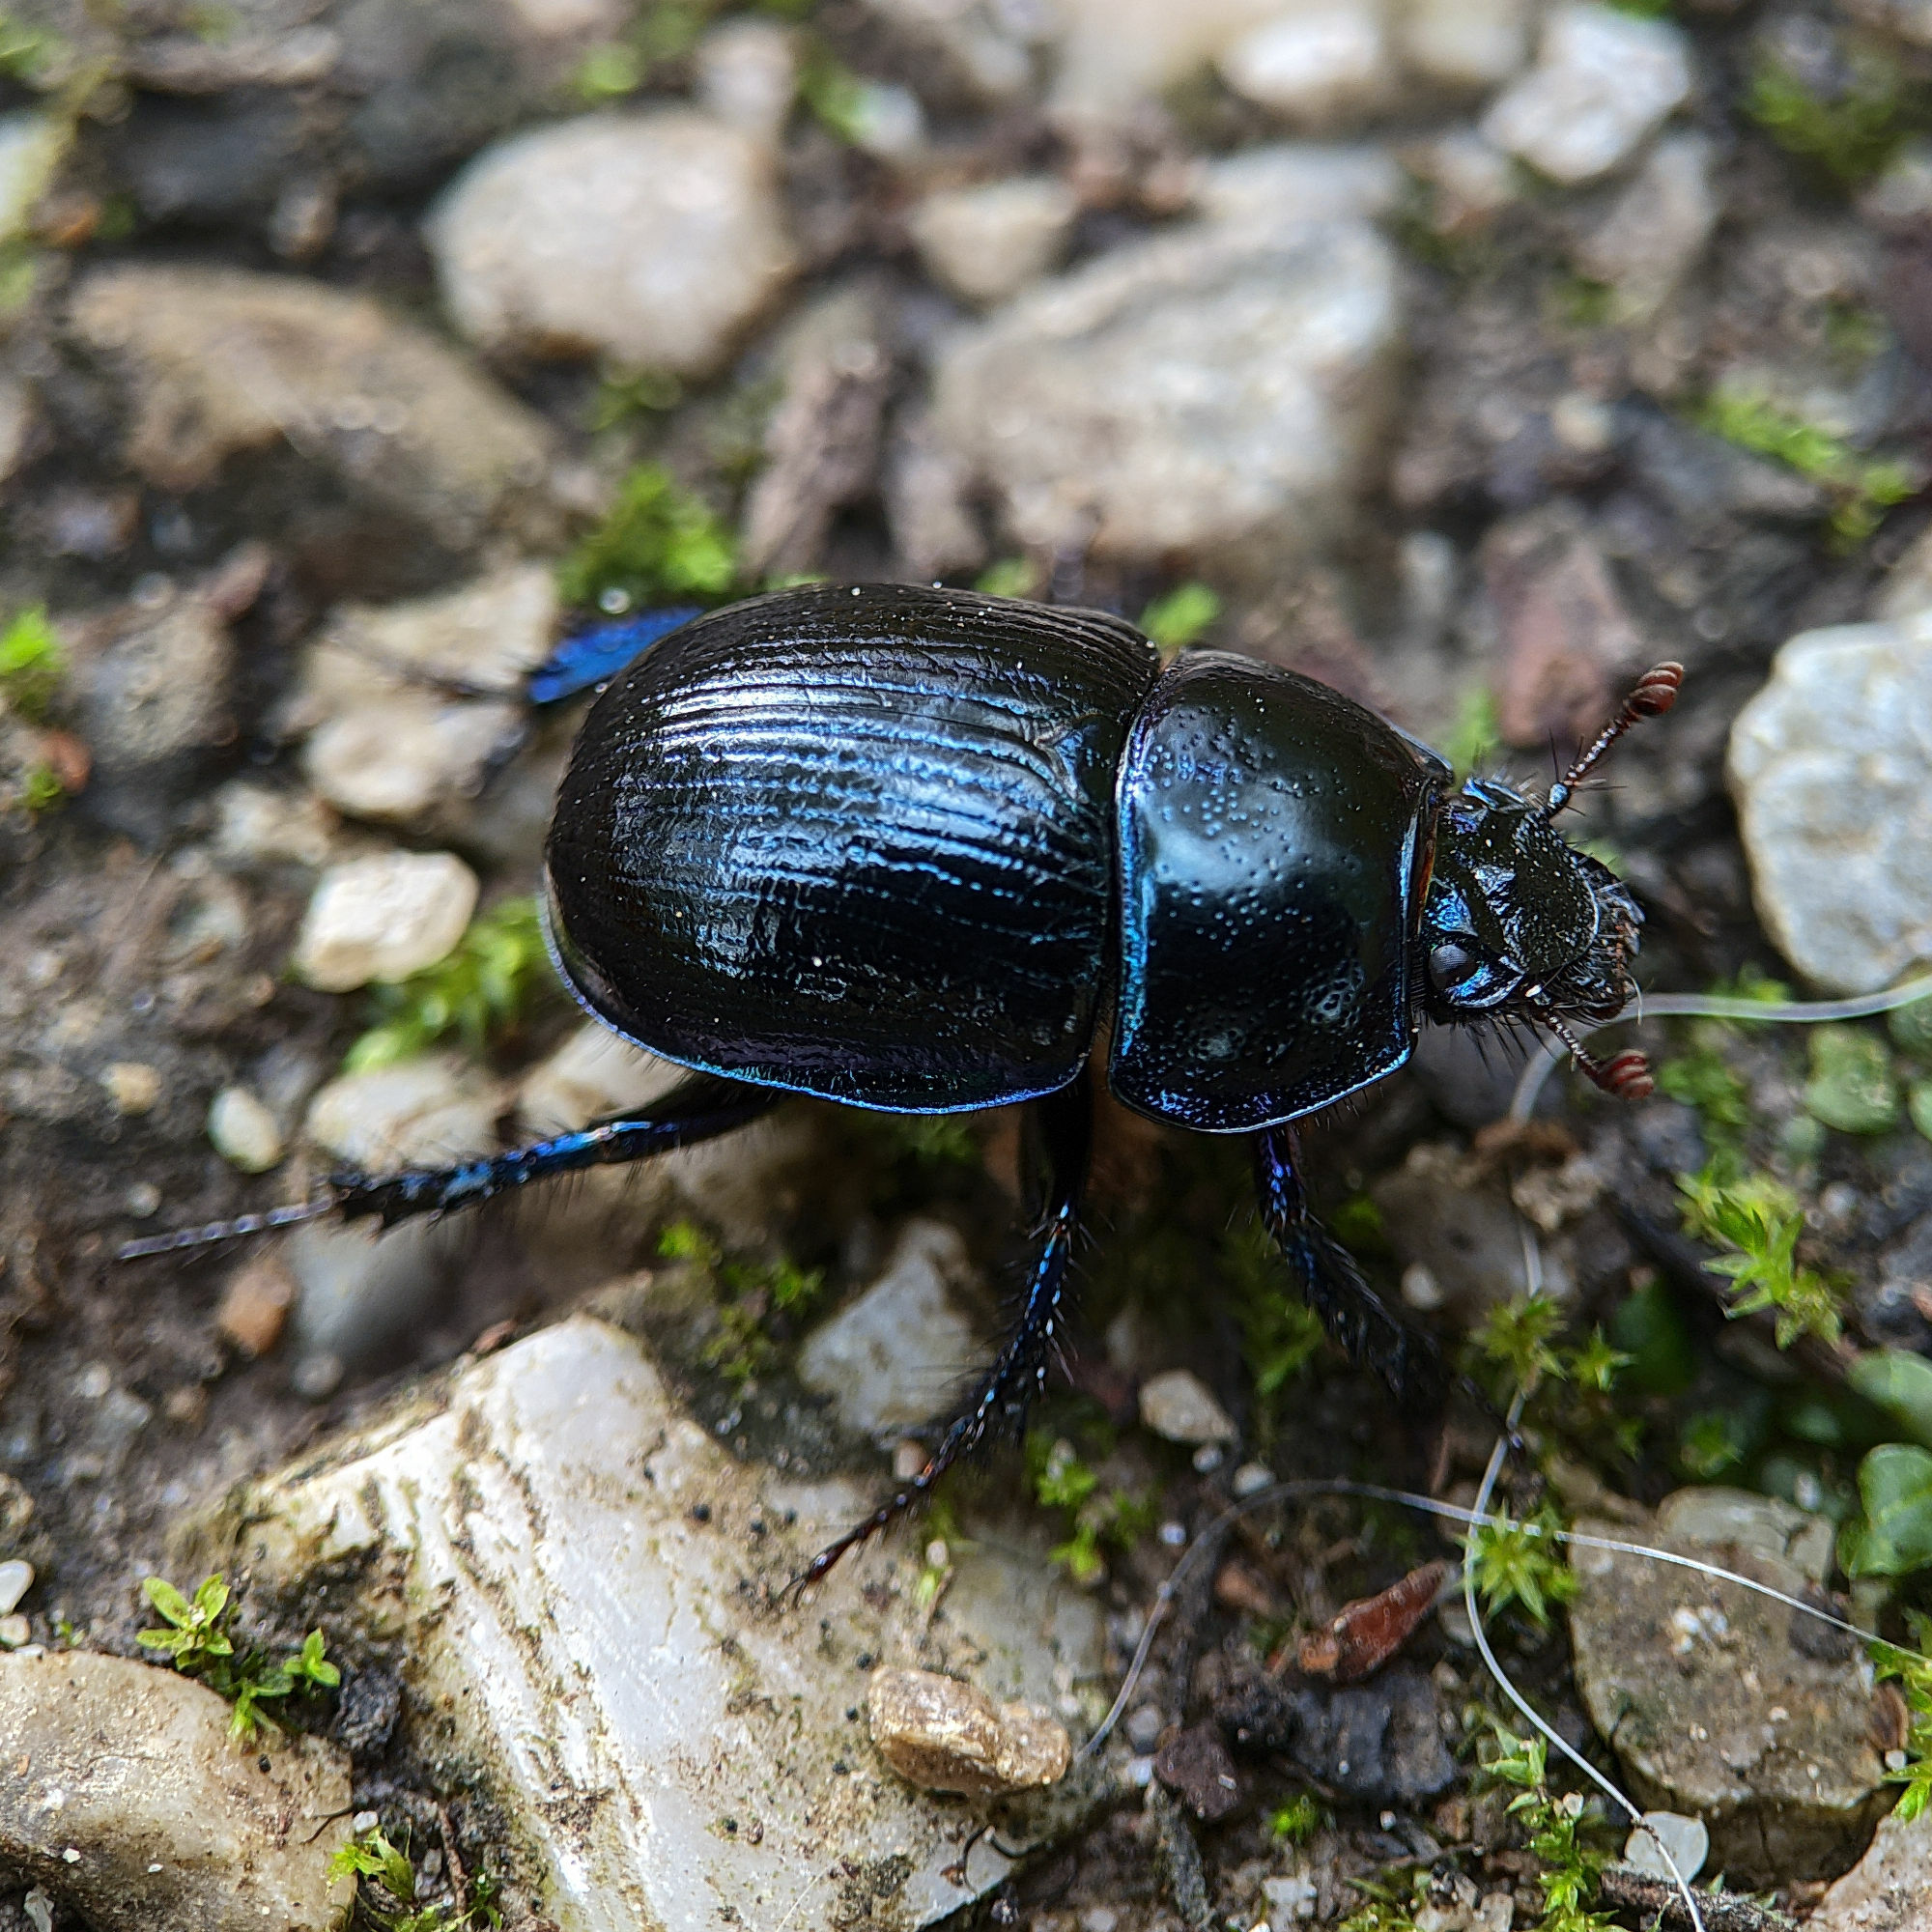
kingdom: Animalia
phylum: Arthropoda
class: Insecta
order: Coleoptera
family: Geotrupidae
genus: Anoplotrupes
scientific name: Anoplotrupes stercorosus
